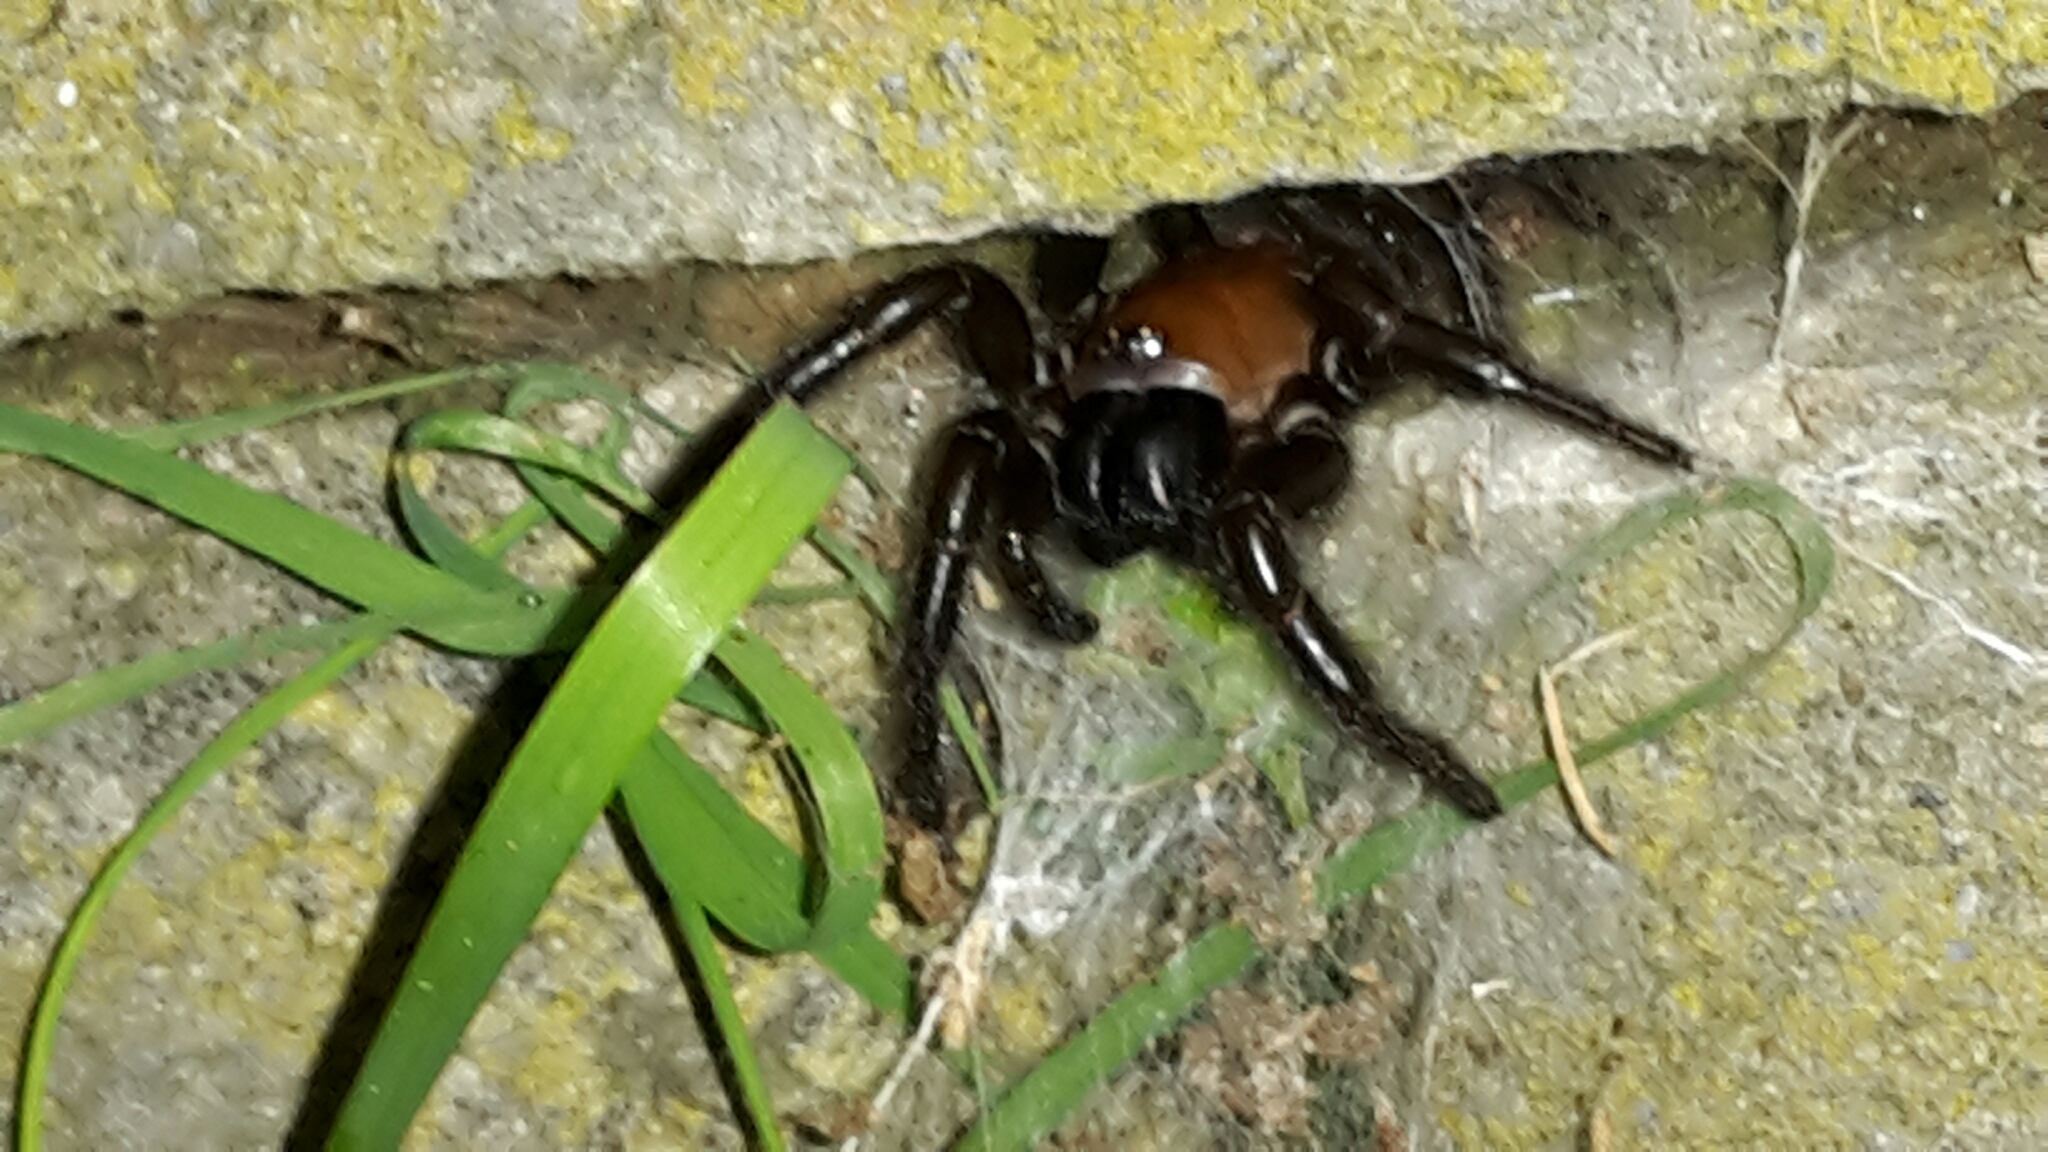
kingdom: Animalia
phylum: Arthropoda
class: Arachnida
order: Araneae
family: Porrhothelidae
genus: Porrhothele
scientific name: Porrhothele antipodiana
